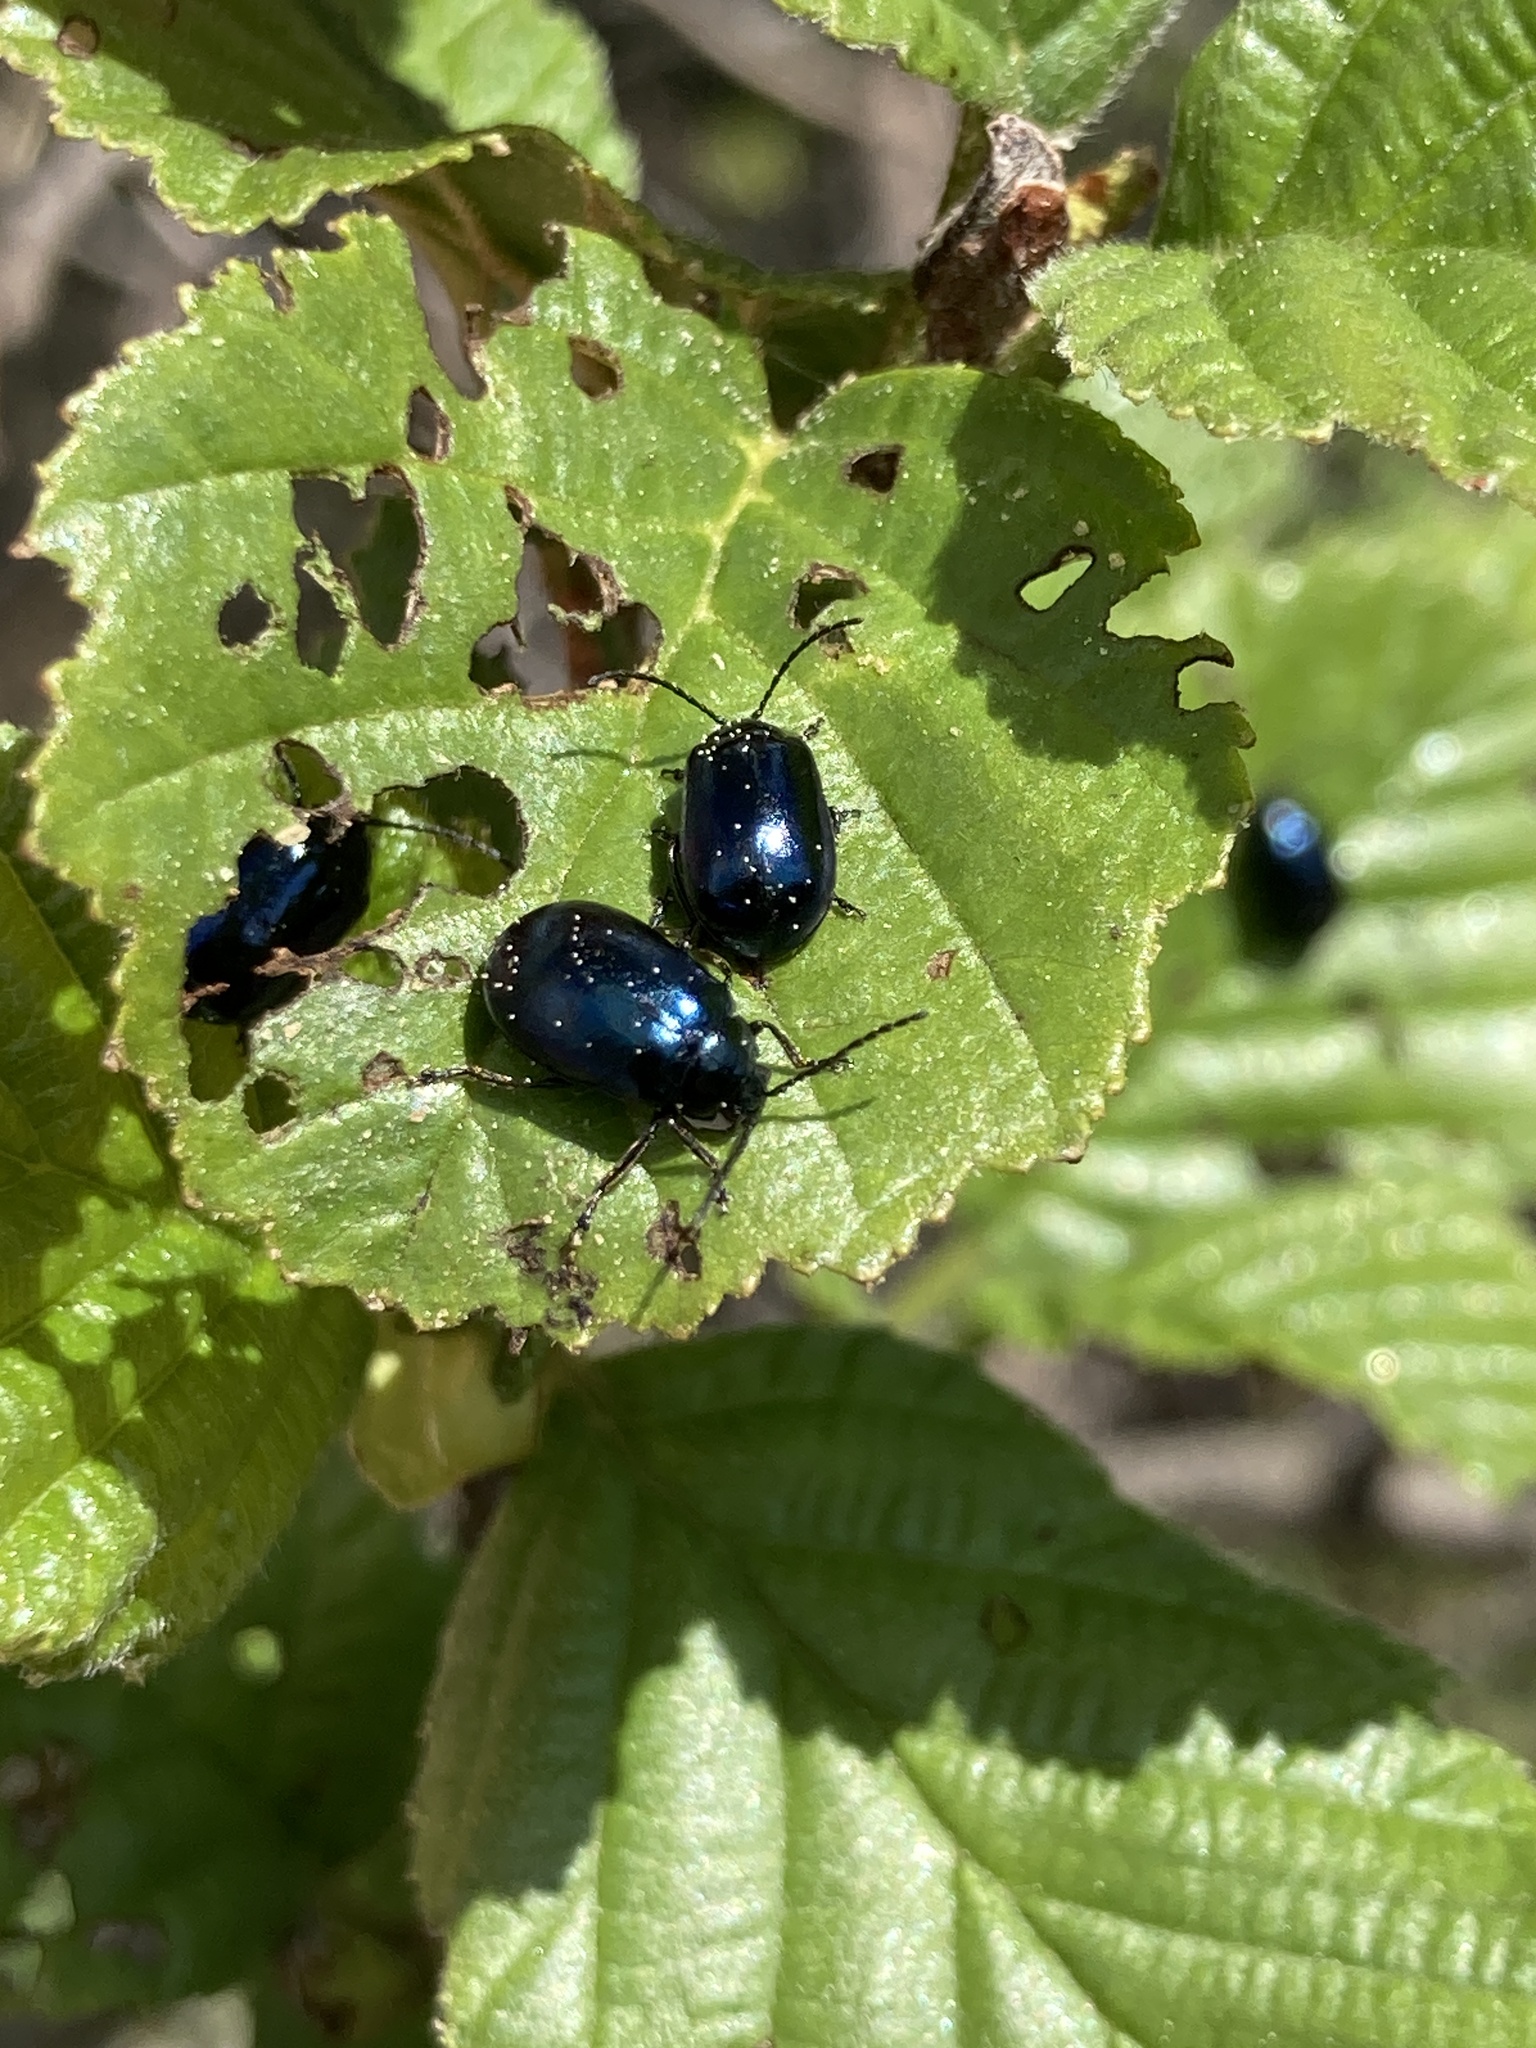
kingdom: Animalia
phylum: Arthropoda
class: Insecta
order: Coleoptera
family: Chrysomelidae
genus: Agelastica
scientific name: Agelastica alni
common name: Alder leaf beetle
